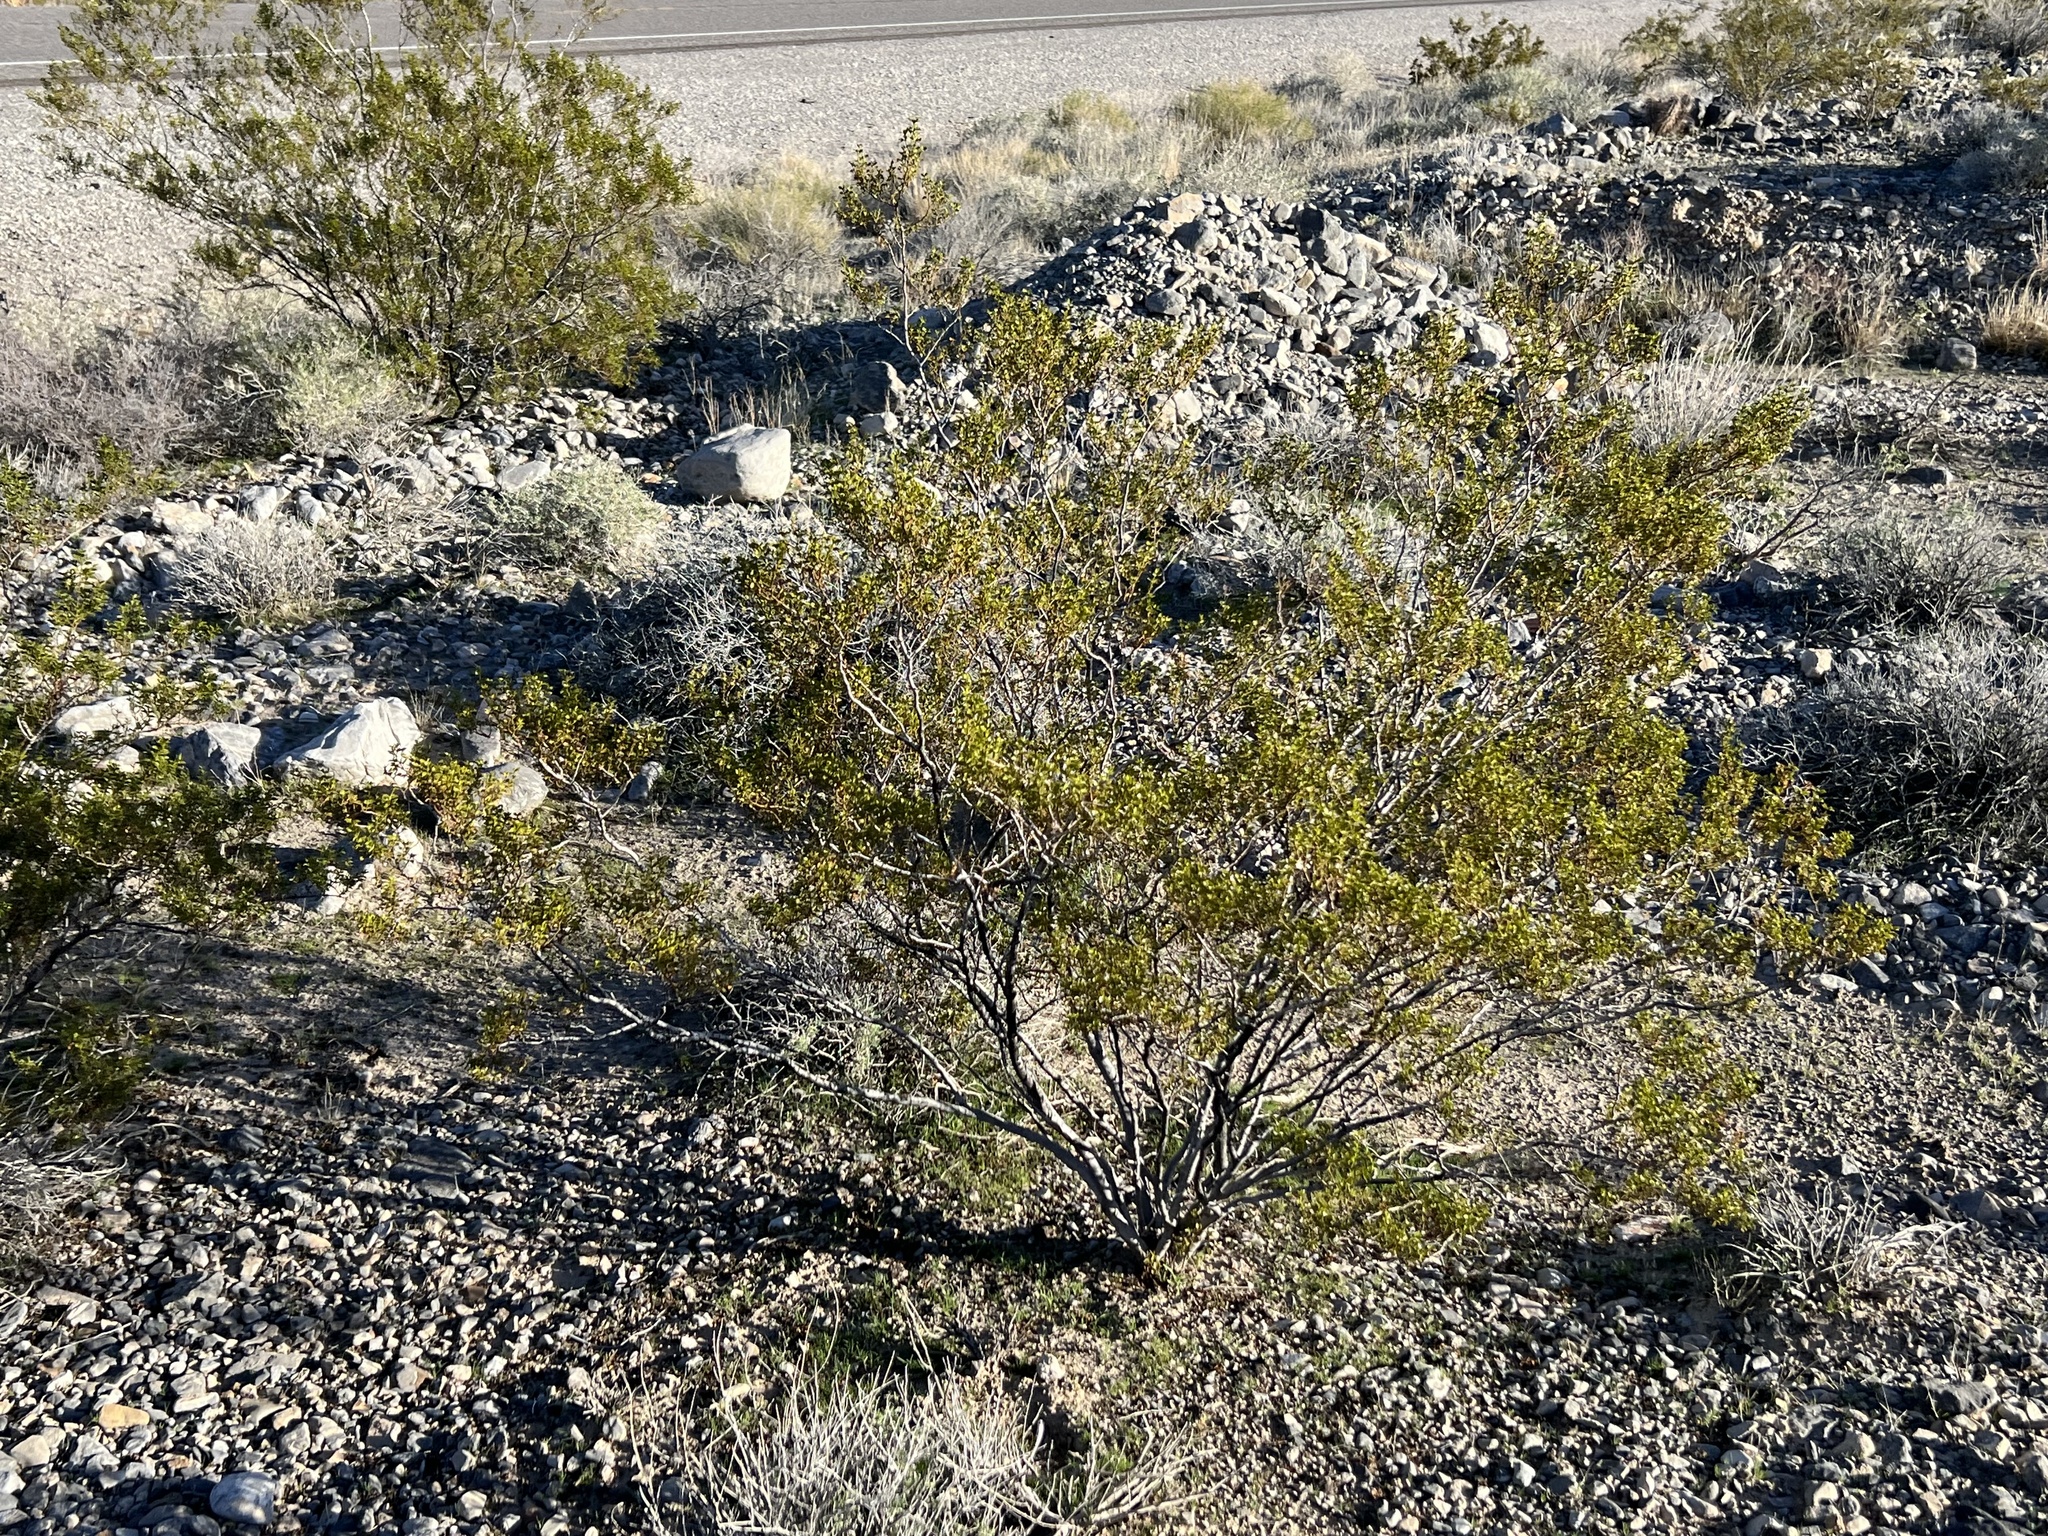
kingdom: Plantae
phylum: Tracheophyta
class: Magnoliopsida
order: Zygophyllales
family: Zygophyllaceae
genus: Larrea
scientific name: Larrea tridentata
